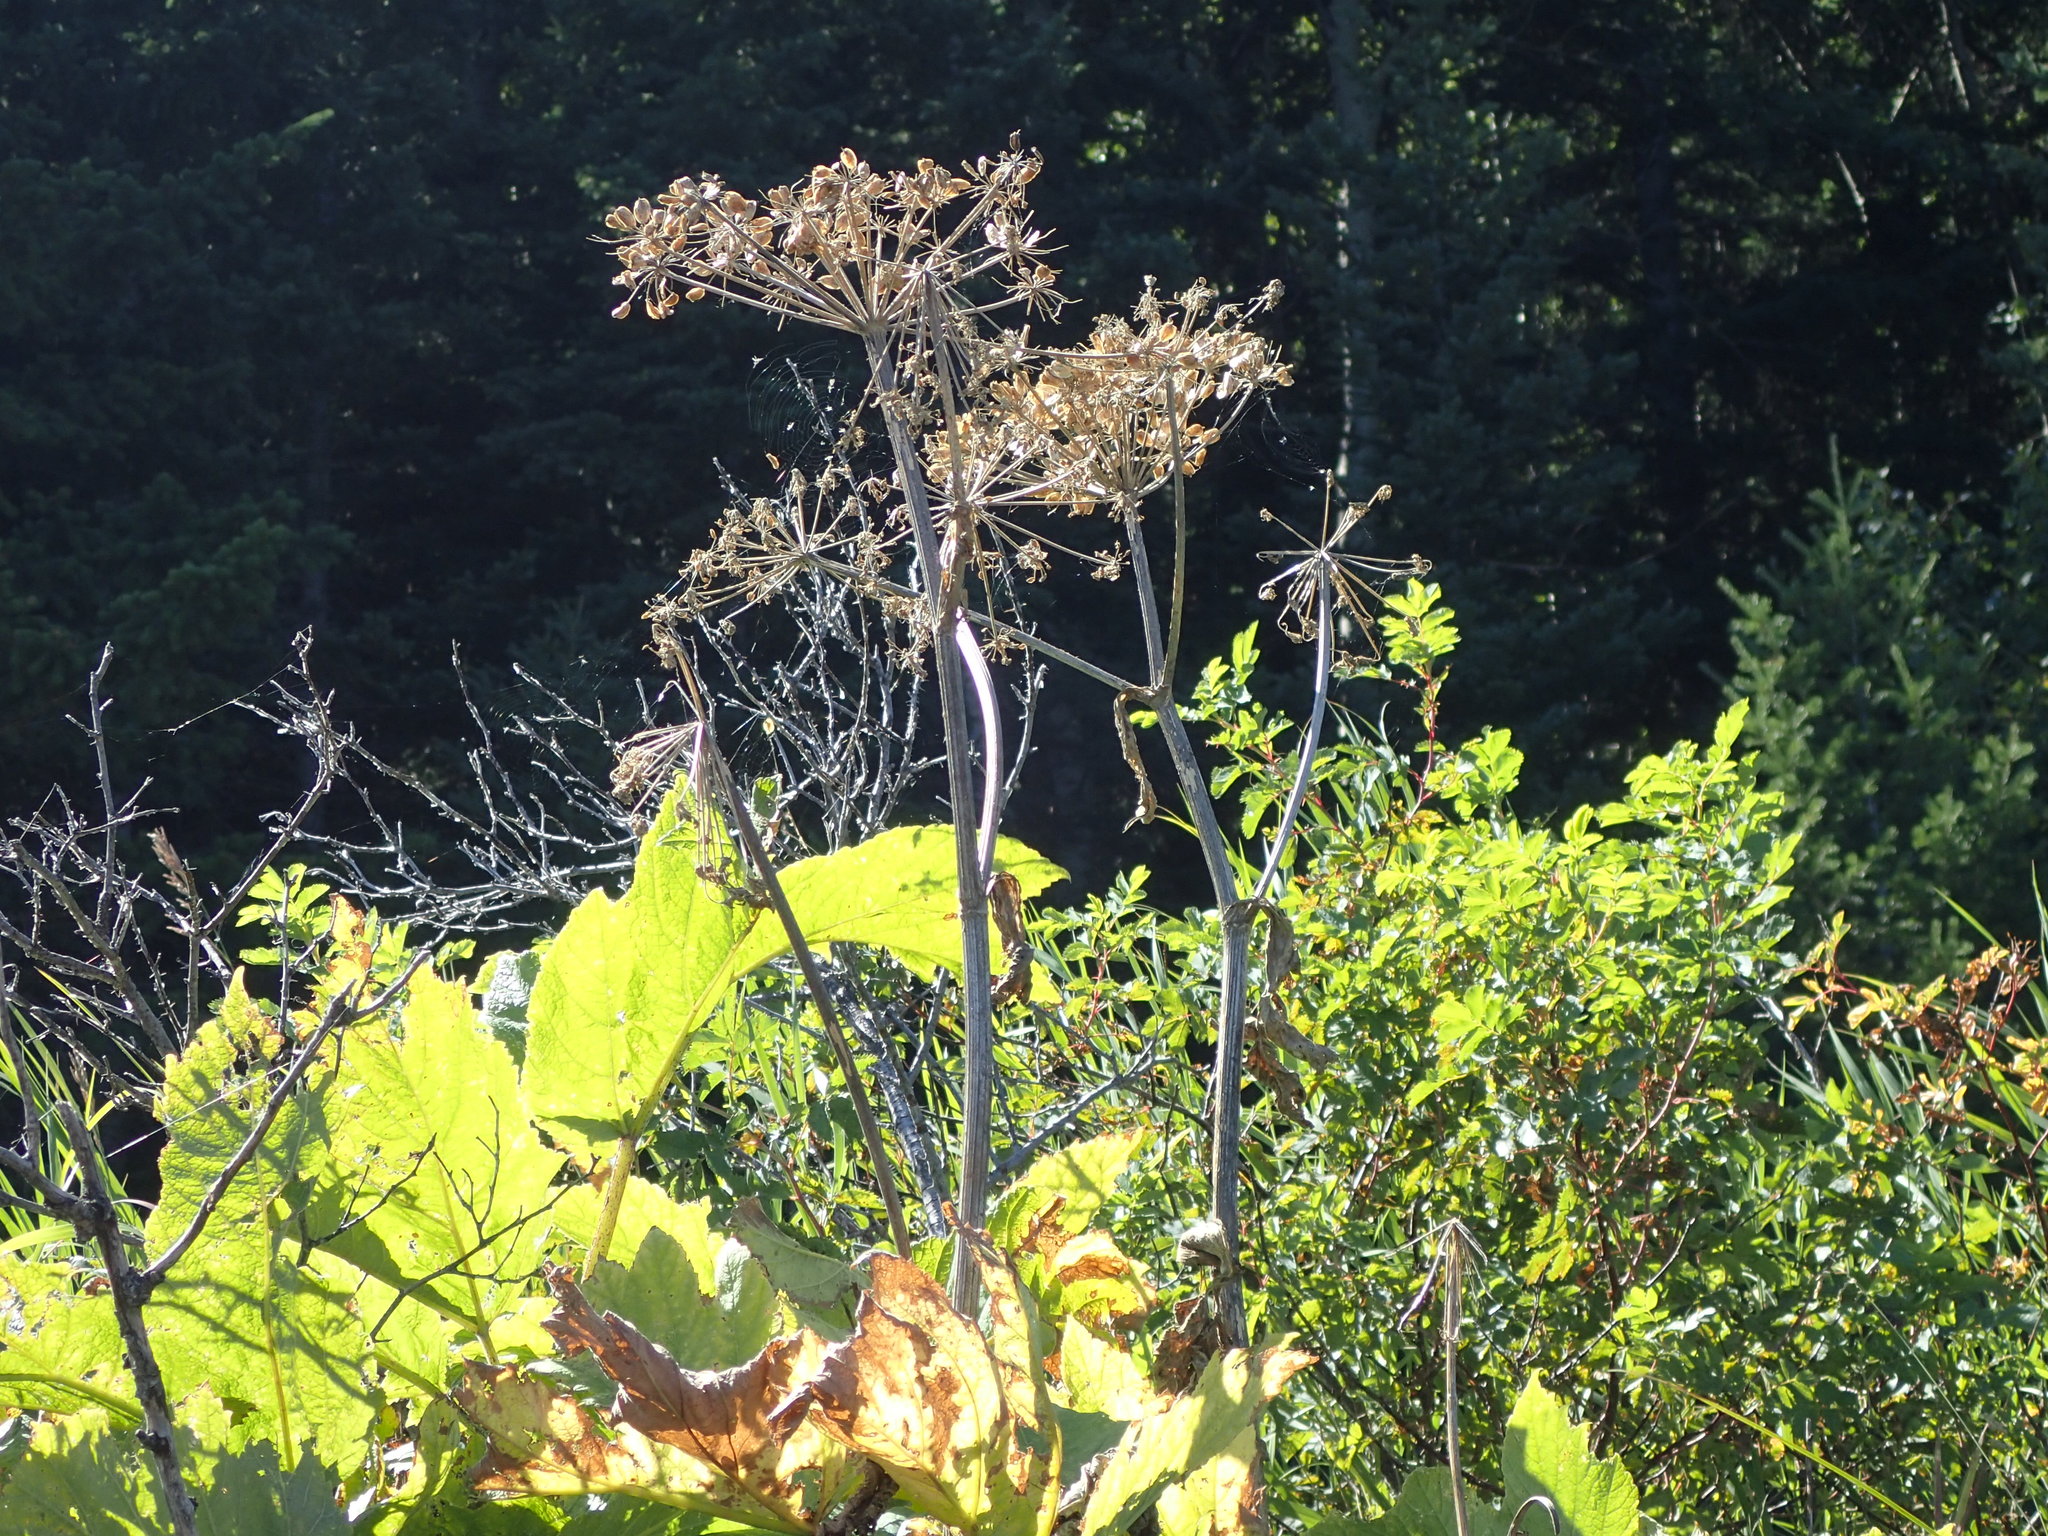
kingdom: Plantae
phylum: Tracheophyta
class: Magnoliopsida
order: Apiales
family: Apiaceae
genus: Heracleum
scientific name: Heracleum maximum
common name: American cow parsnip
